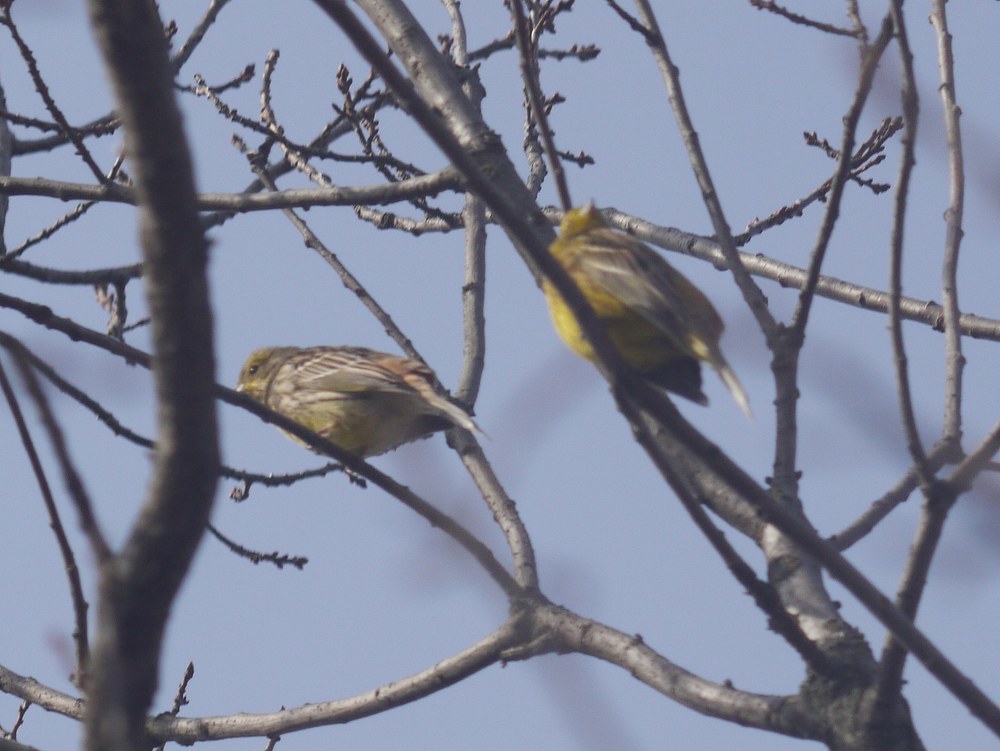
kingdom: Animalia
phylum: Chordata
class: Aves
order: Passeriformes
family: Emberizidae
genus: Emberiza
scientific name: Emberiza citrinella
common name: Yellowhammer
